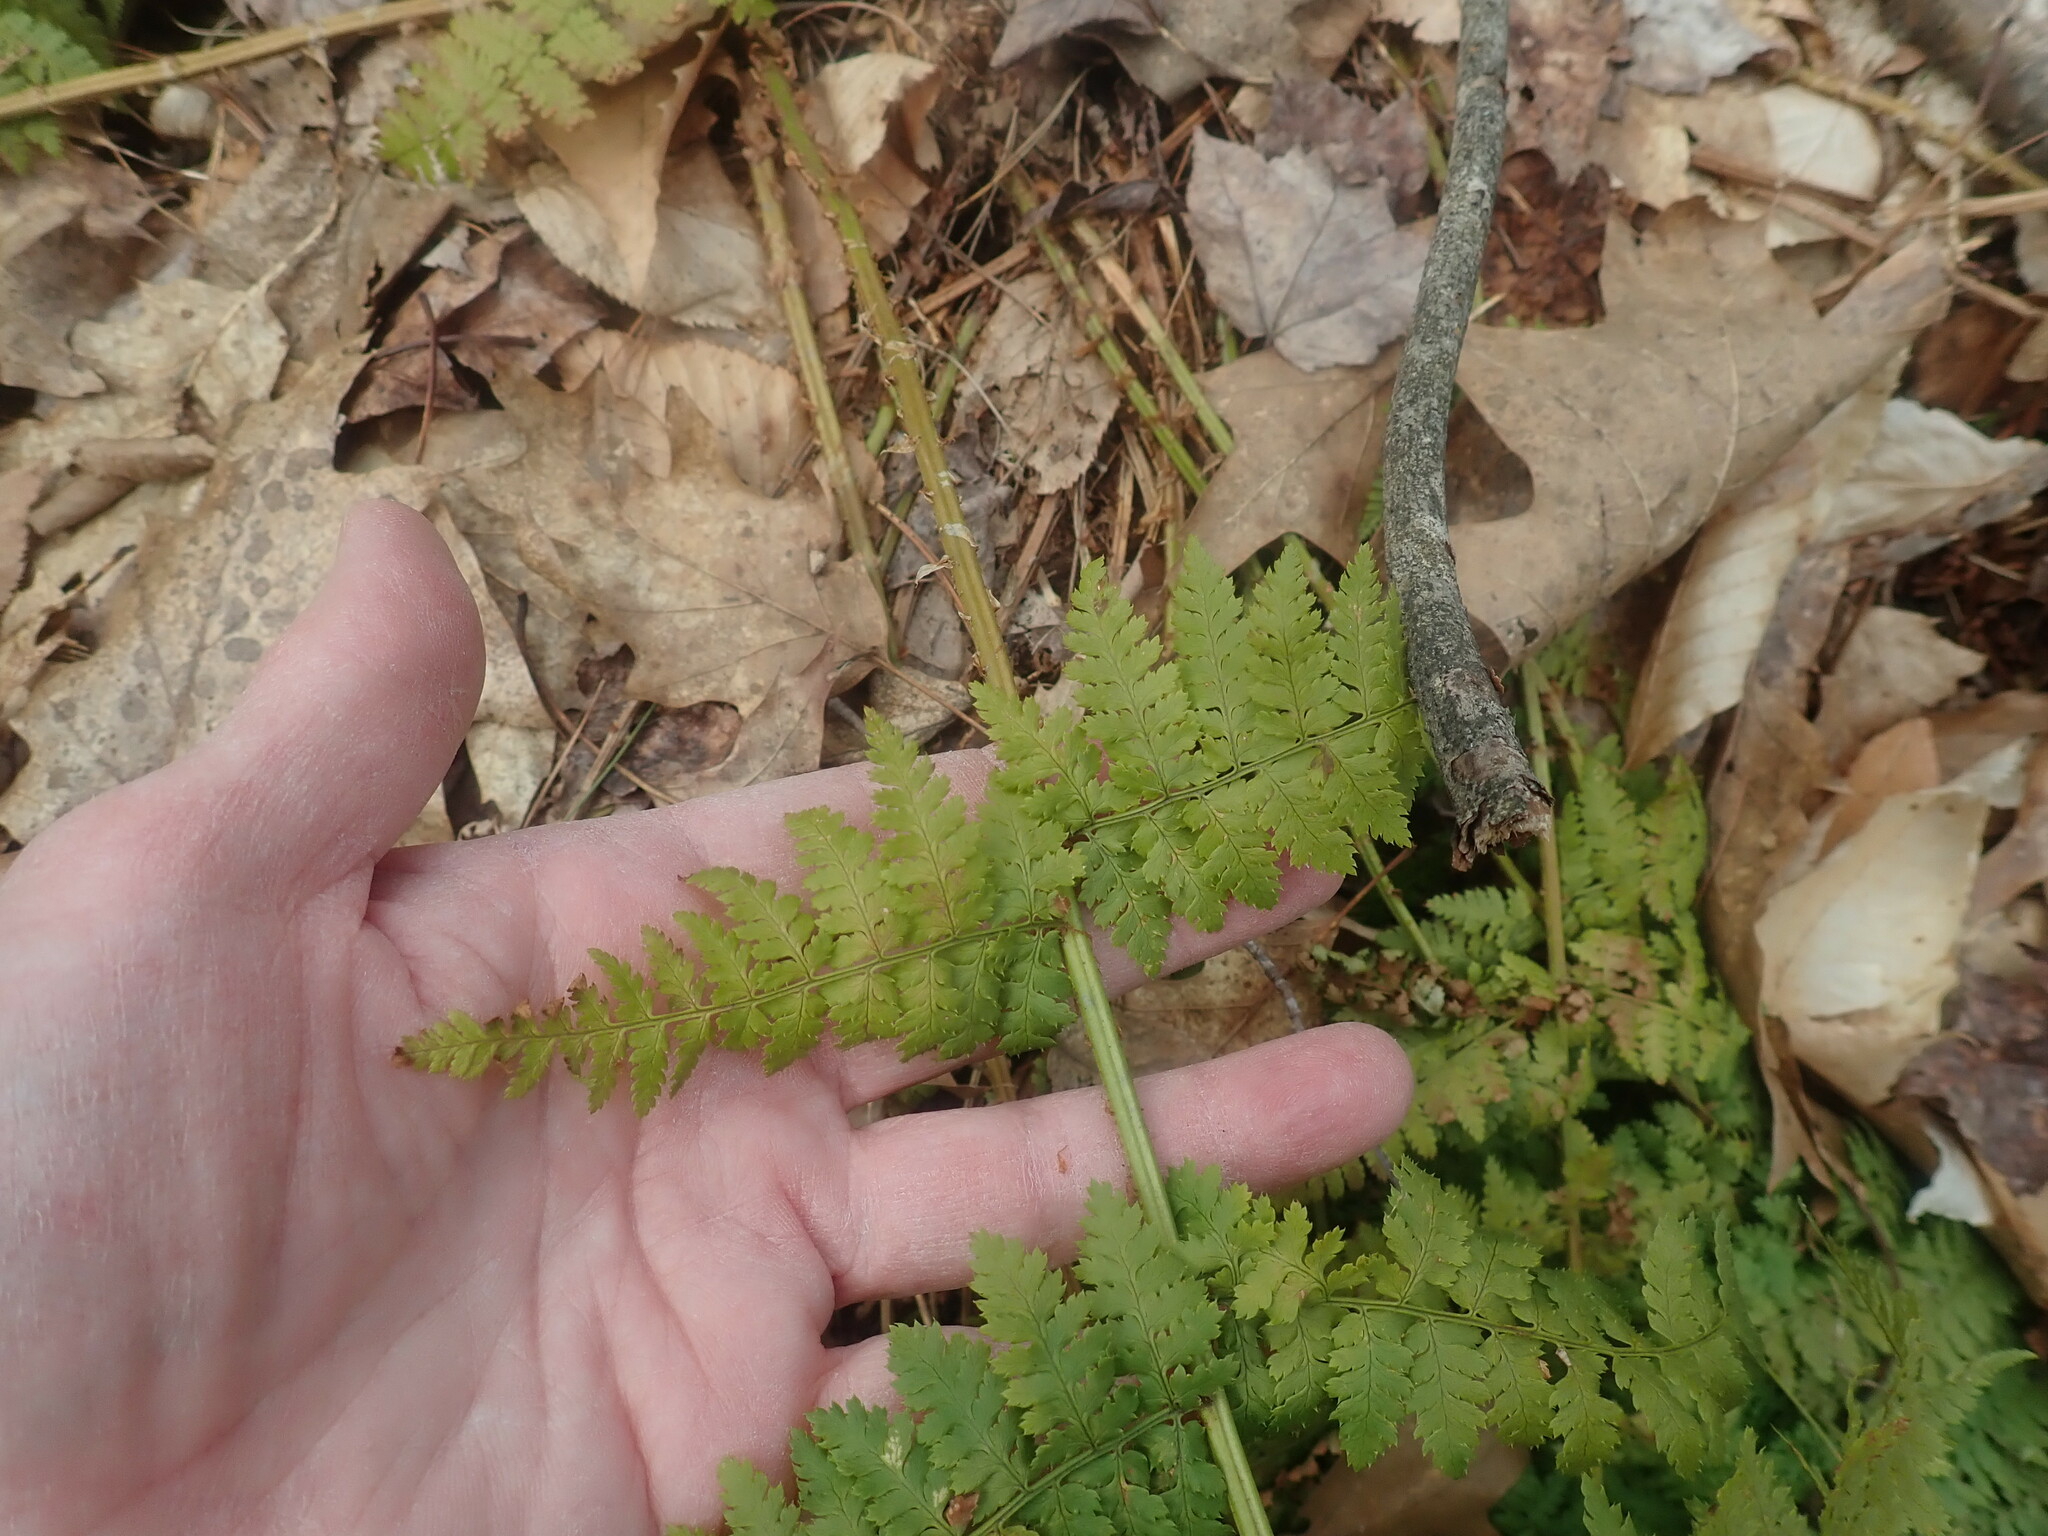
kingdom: Plantae
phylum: Tracheophyta
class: Polypodiopsida
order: Polypodiales
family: Dryopteridaceae
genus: Dryopteris
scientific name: Dryopteris intermedia
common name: Evergreen wood fern
